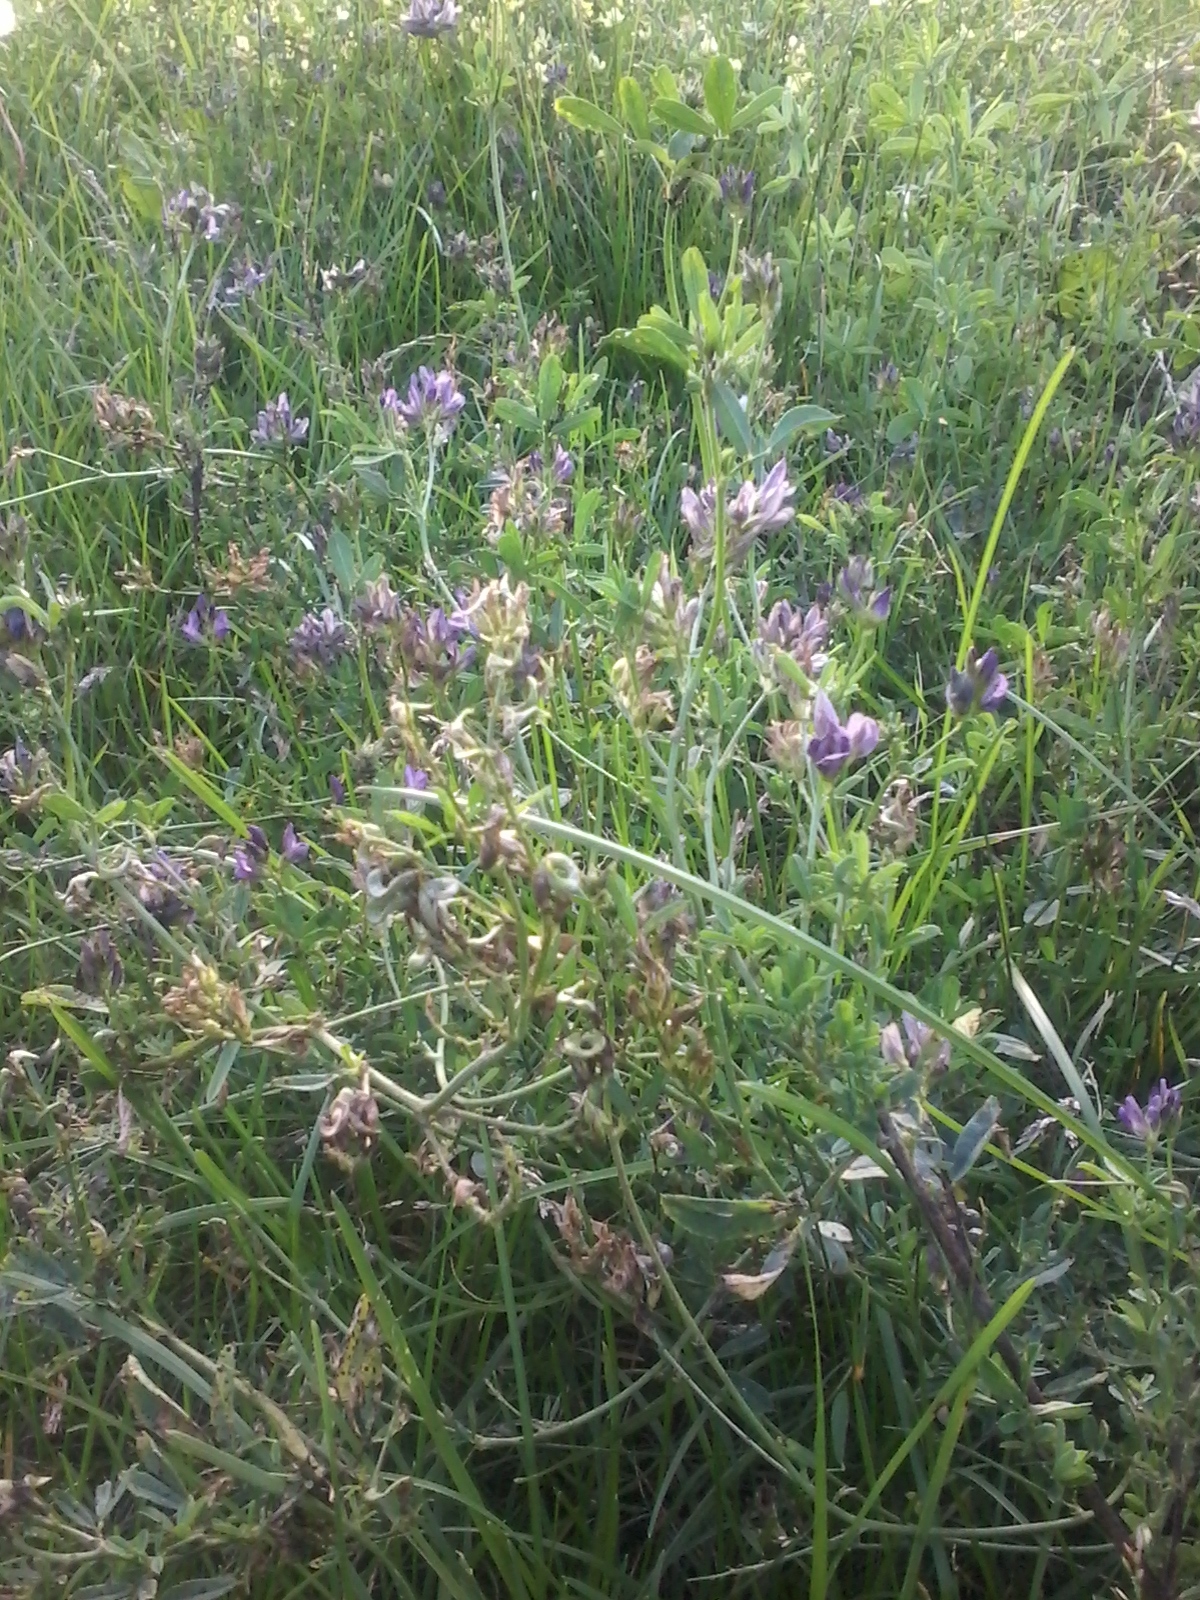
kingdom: Plantae
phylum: Tracheophyta
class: Magnoliopsida
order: Fabales
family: Fabaceae
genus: Medicago
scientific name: Medicago varia
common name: Sand lucerne
